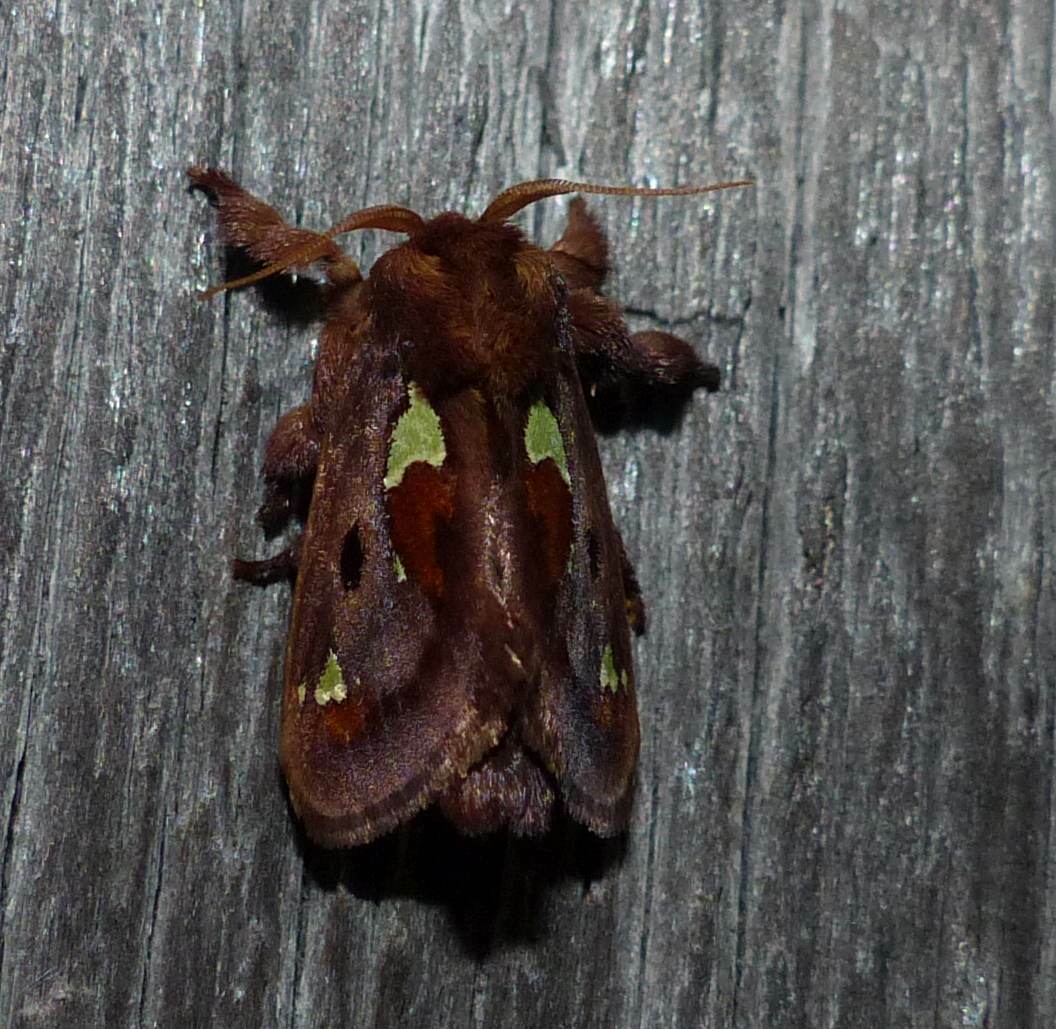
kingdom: Animalia
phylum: Arthropoda
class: Insecta
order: Lepidoptera
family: Limacodidae
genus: Euclea
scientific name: Euclea delphinii
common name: Spiny oak-slug moth
